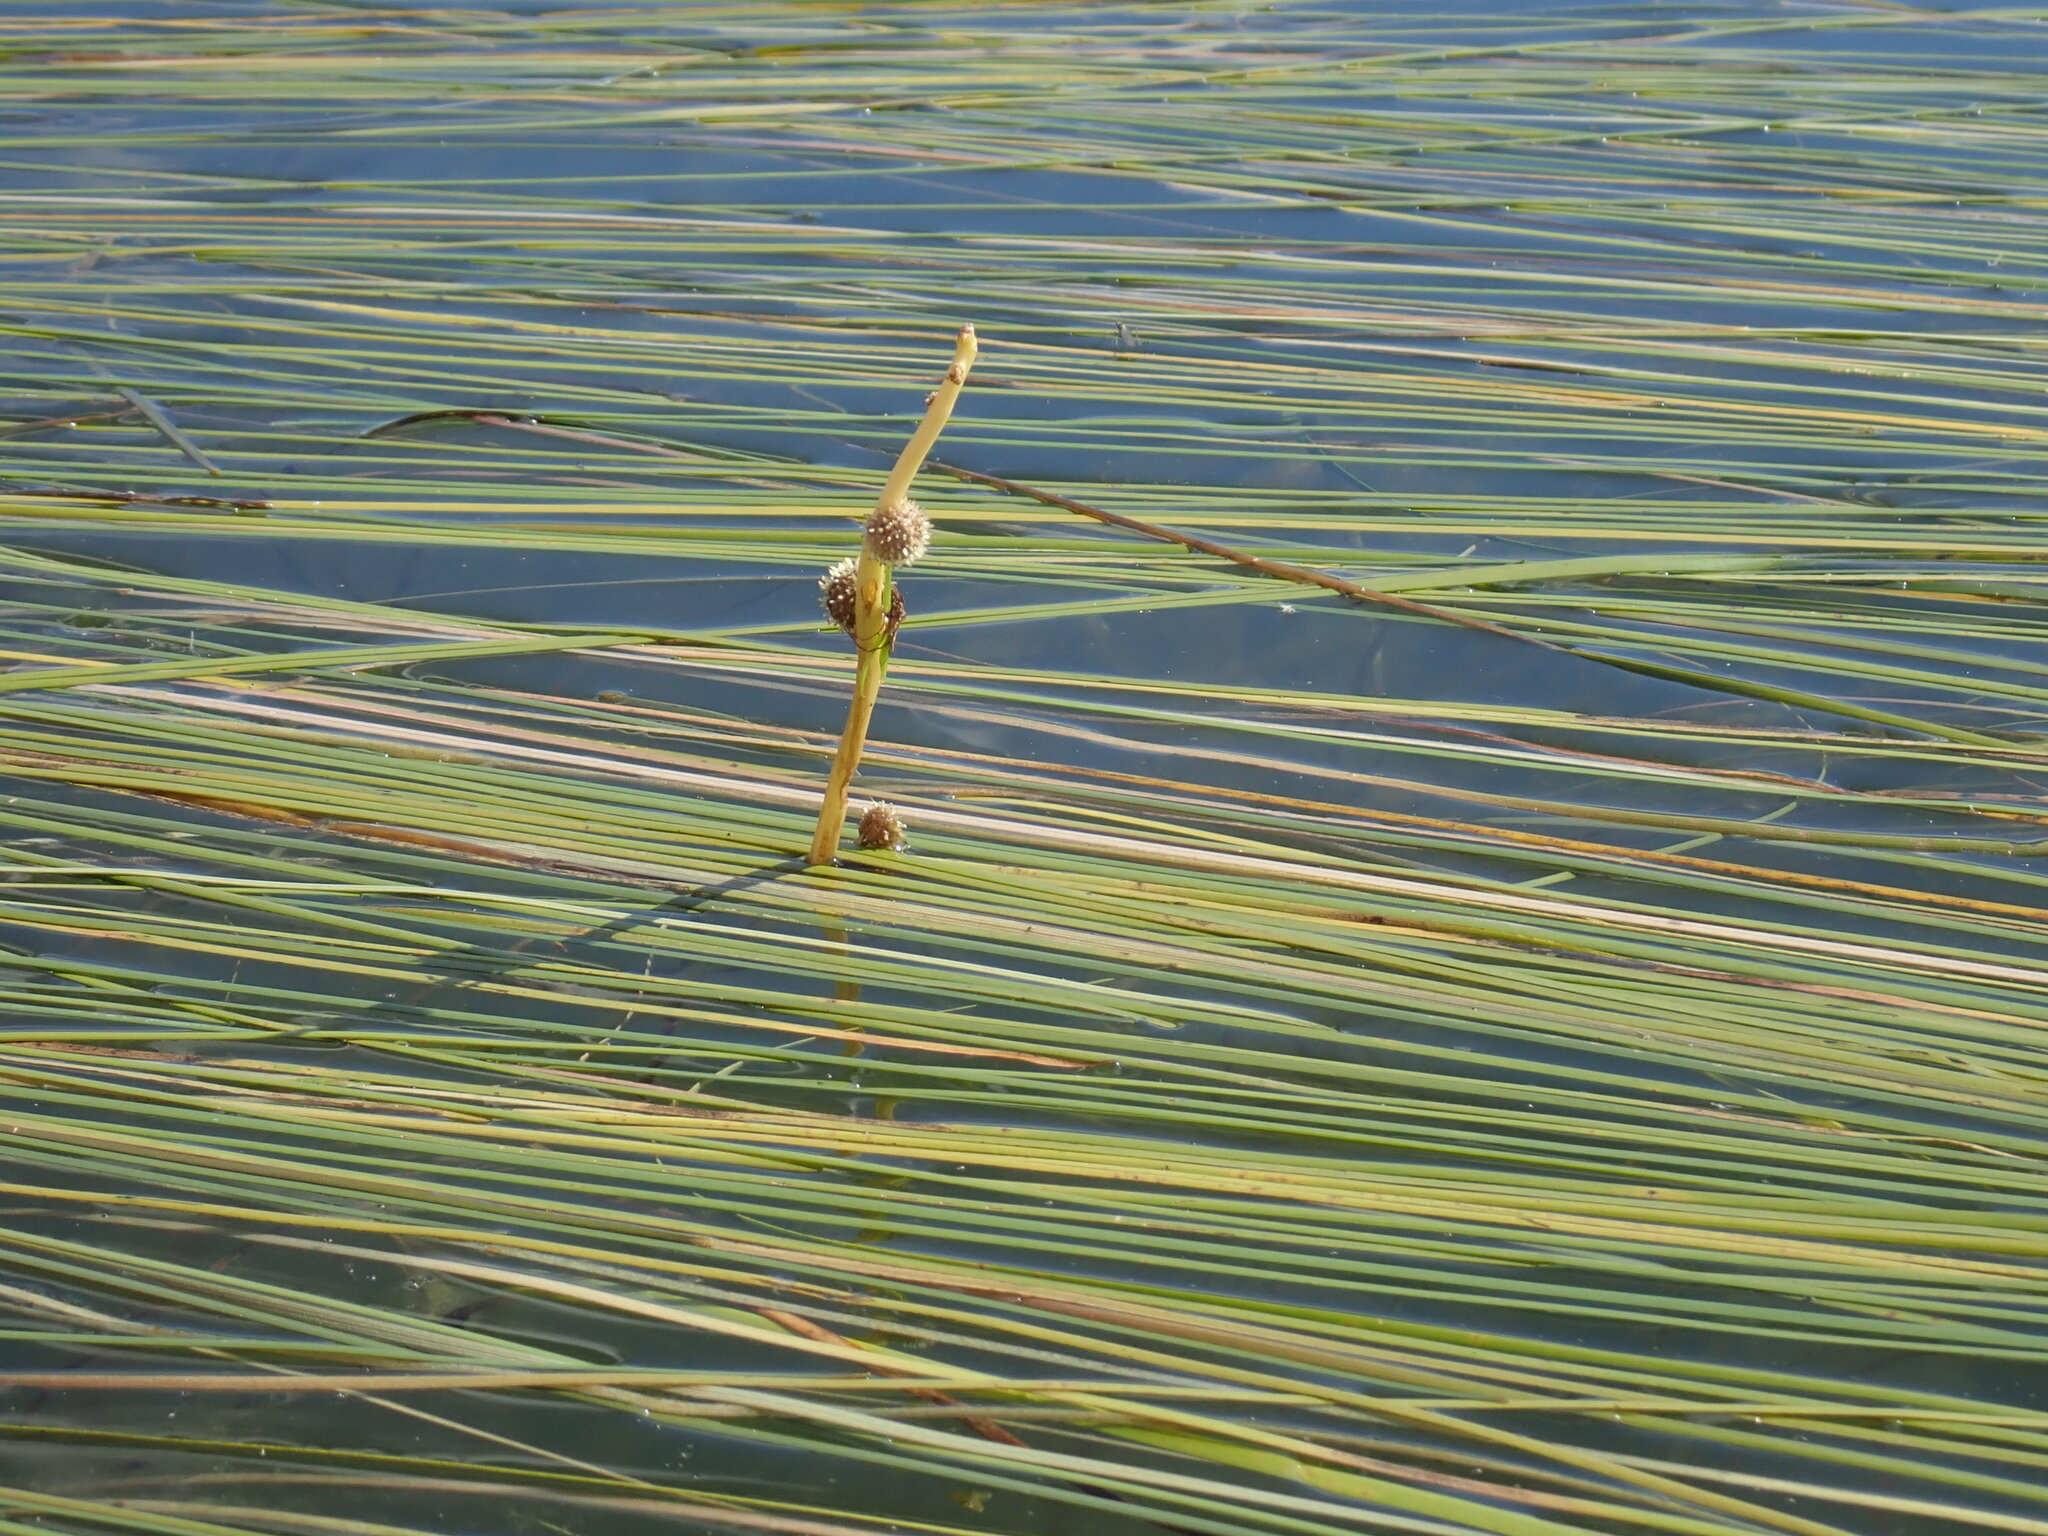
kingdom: Plantae
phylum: Tracheophyta
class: Liliopsida
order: Poales
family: Typhaceae
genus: Sparganium
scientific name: Sparganium angustifolium
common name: Floating bur-reed
